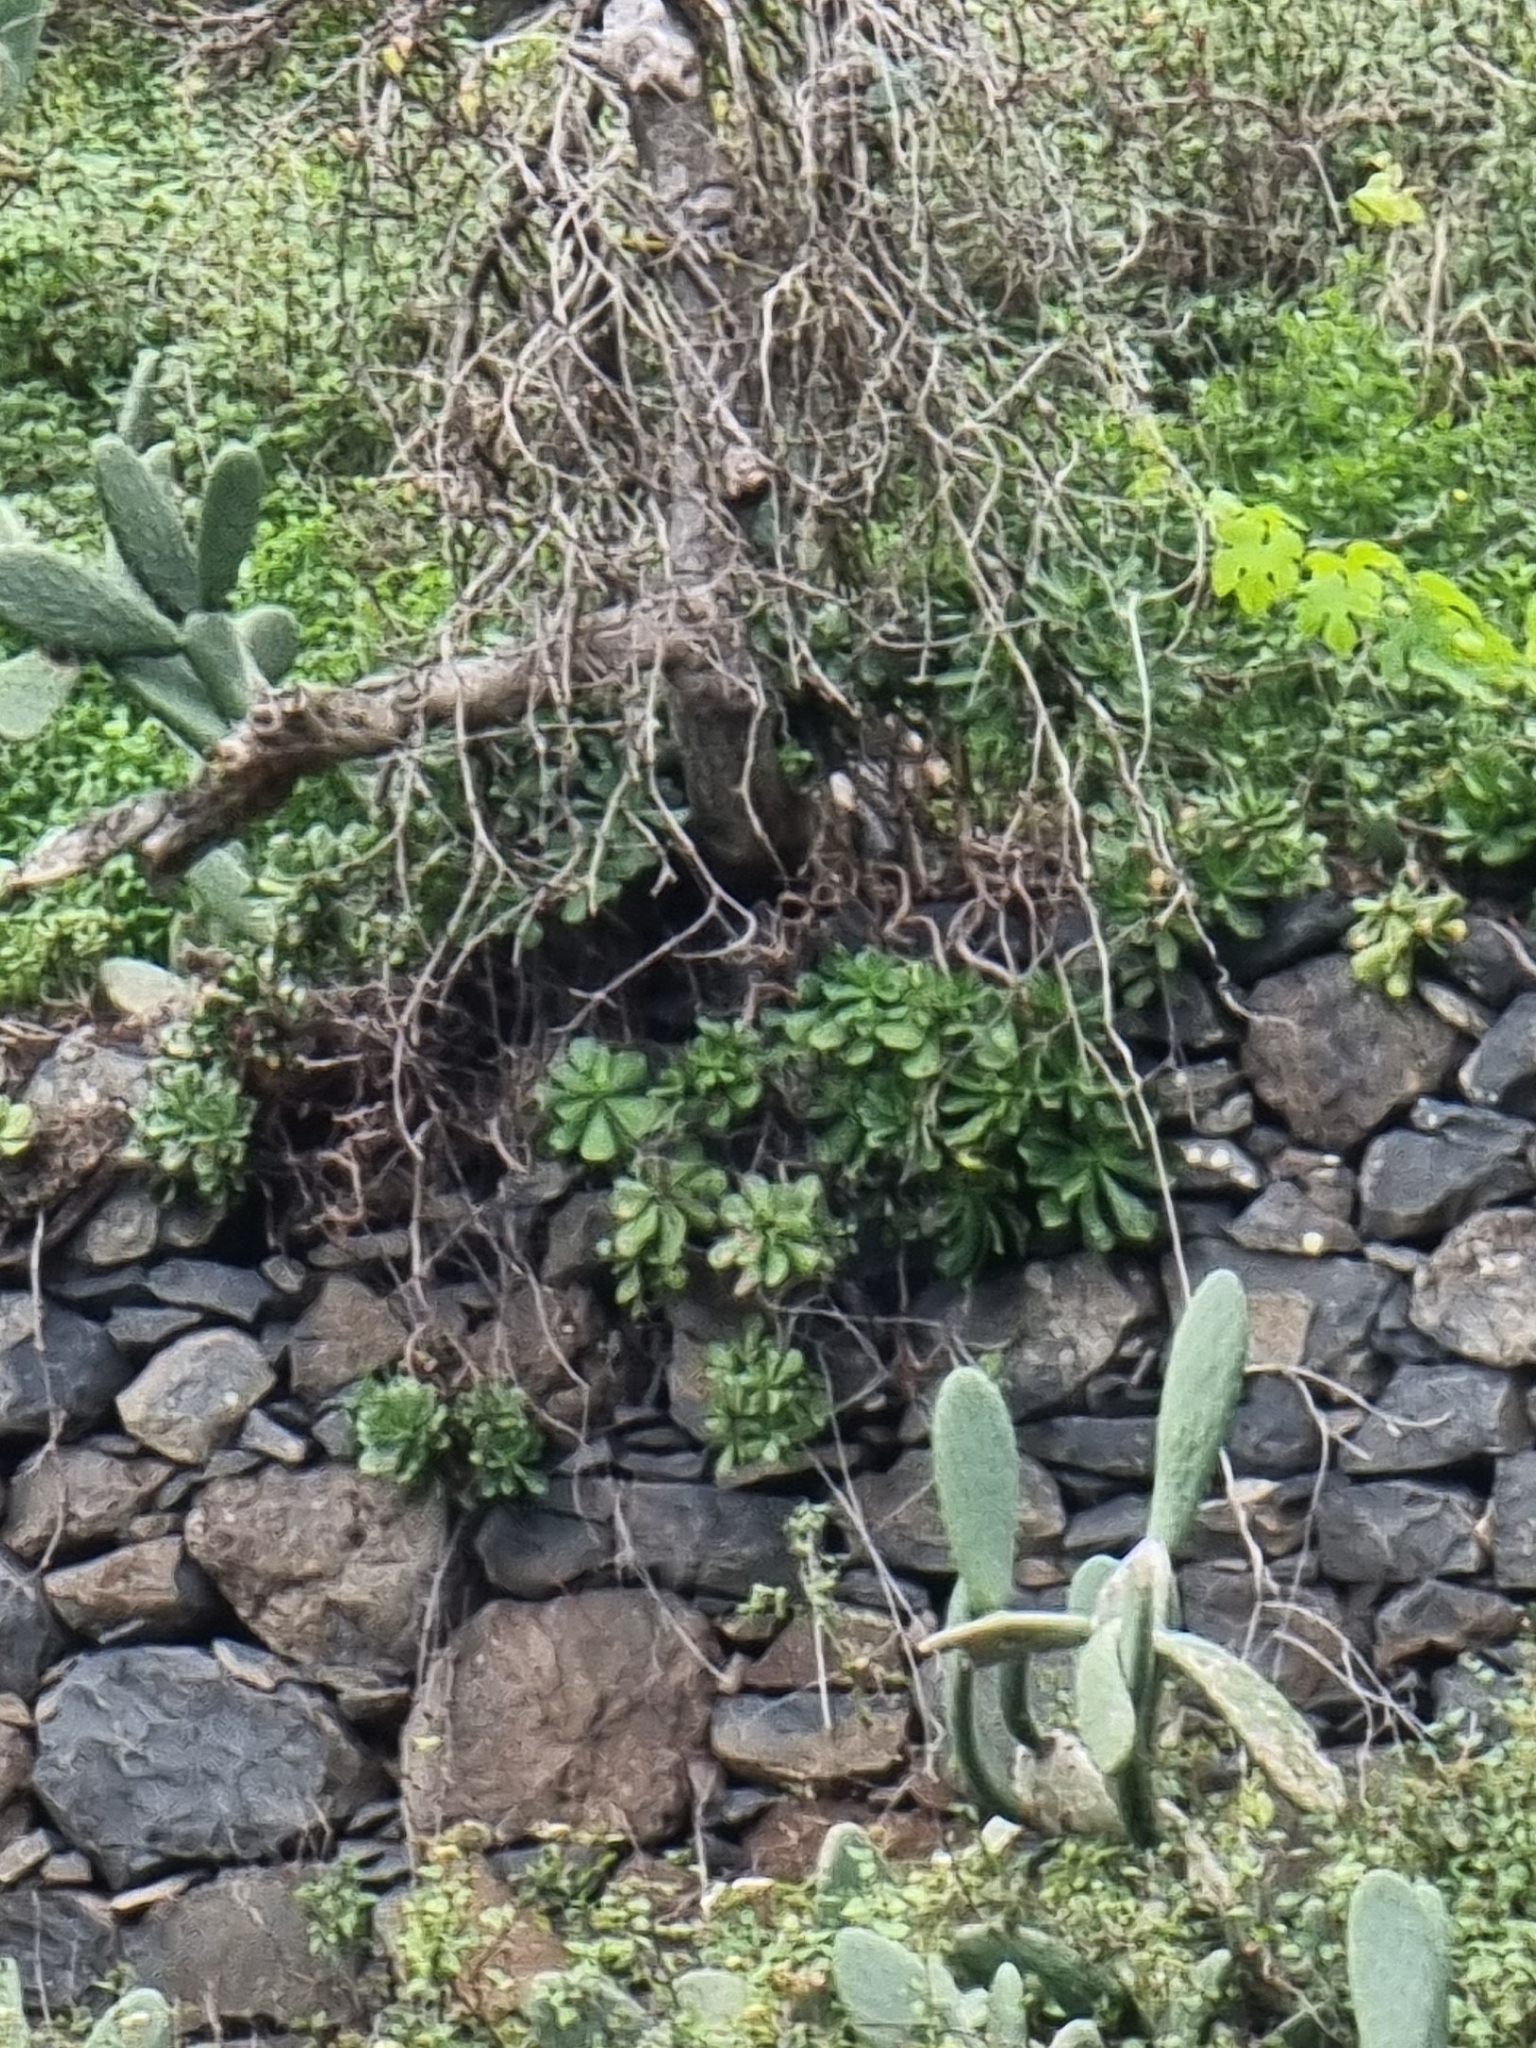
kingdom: Plantae
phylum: Tracheophyta
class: Magnoliopsida
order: Saxifragales
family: Crassulaceae
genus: Aeonium
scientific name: Aeonium glutinosum
